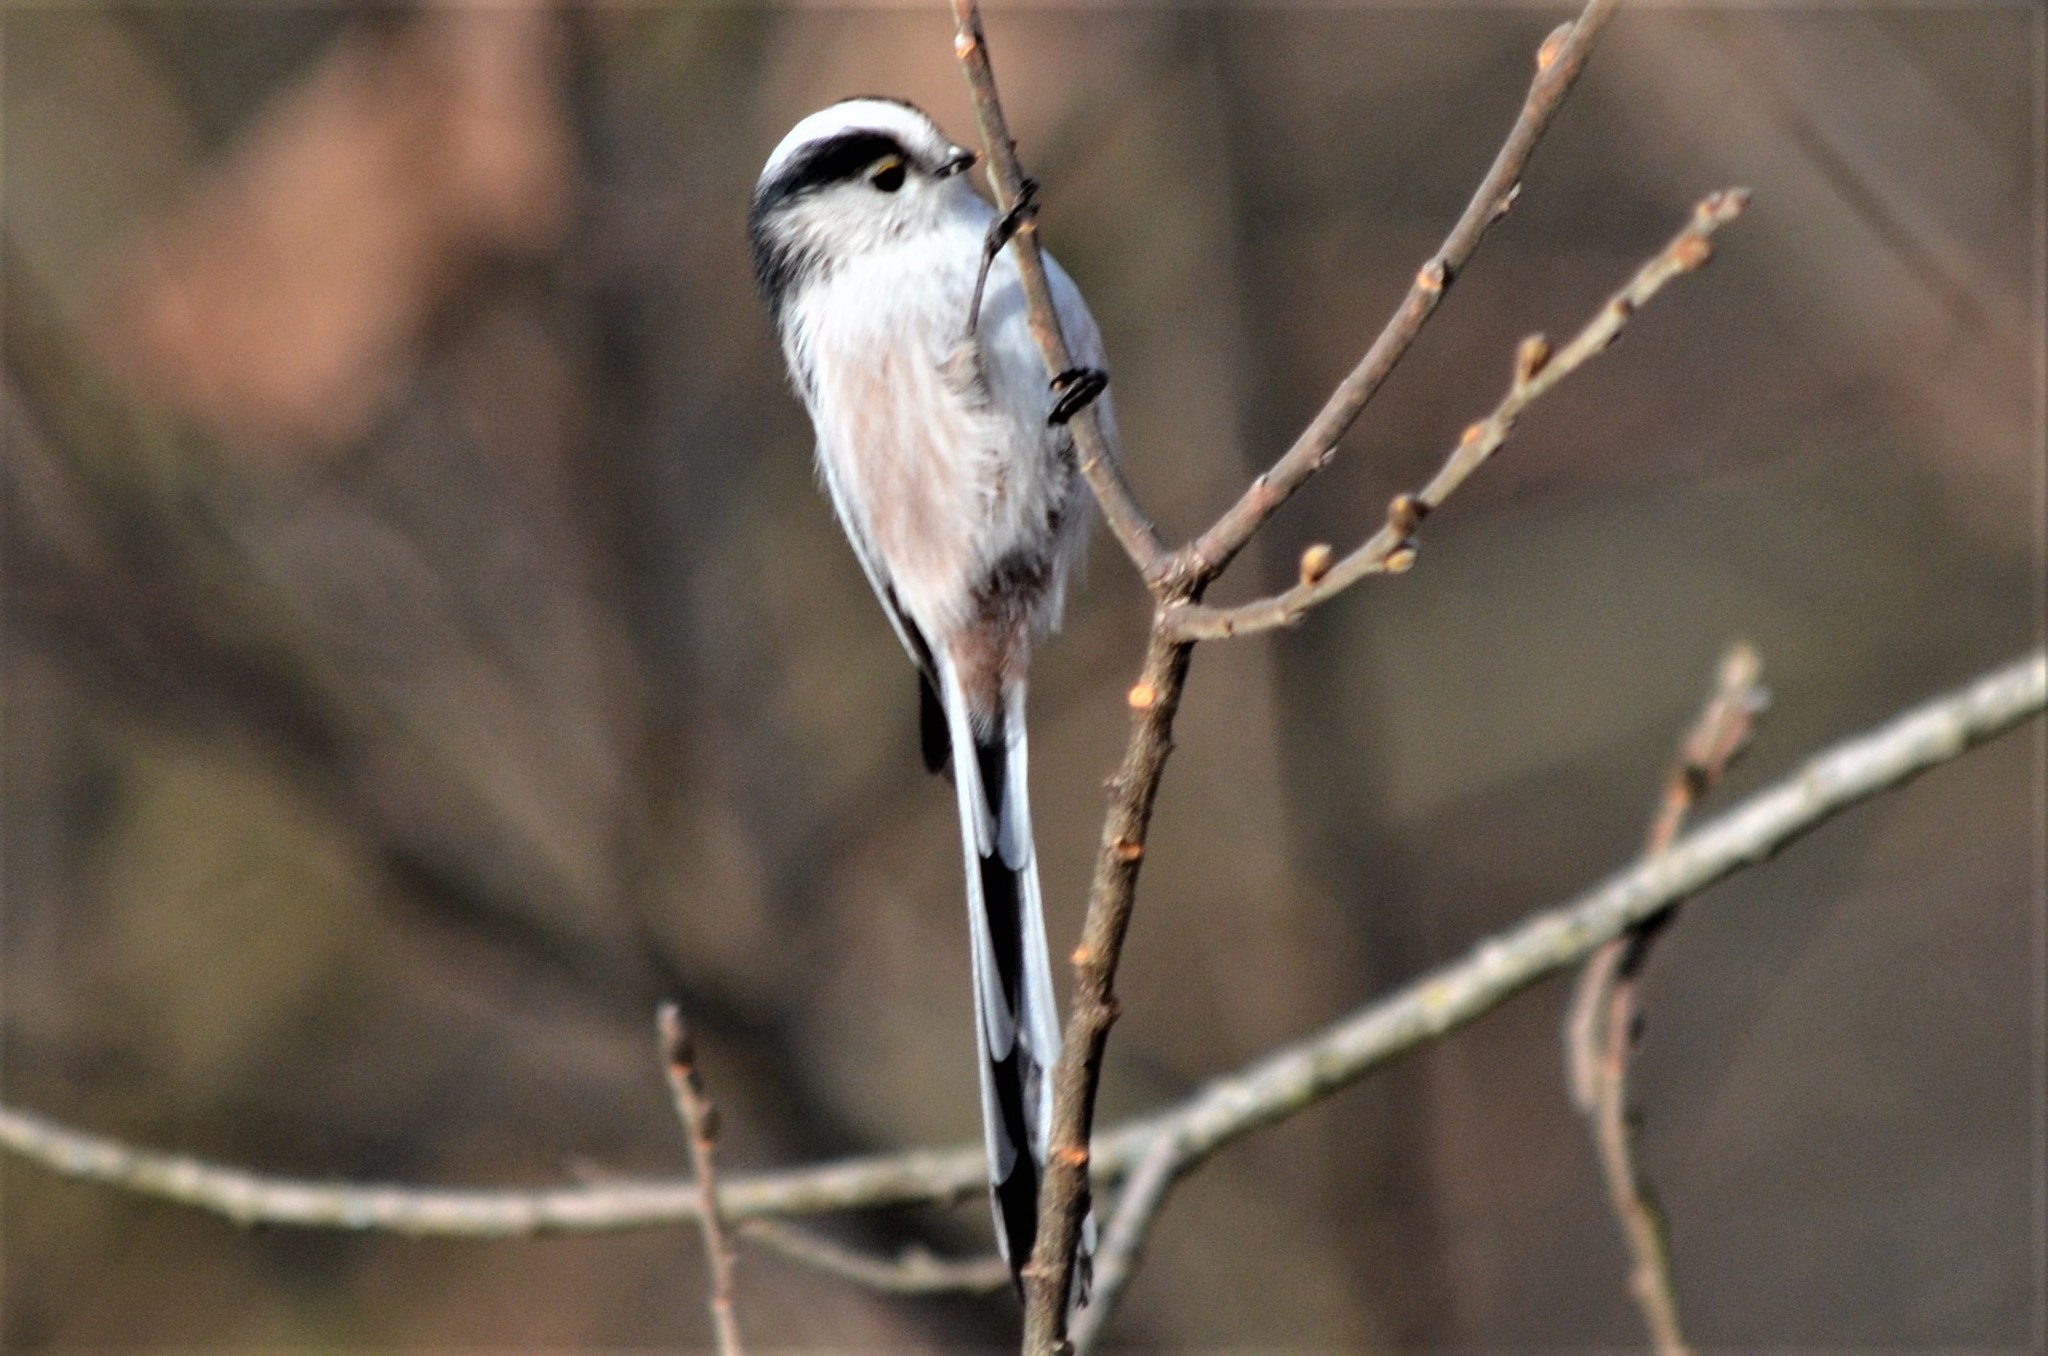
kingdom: Animalia
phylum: Chordata
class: Aves
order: Passeriformes
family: Aegithalidae
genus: Aegithalos
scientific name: Aegithalos caudatus
